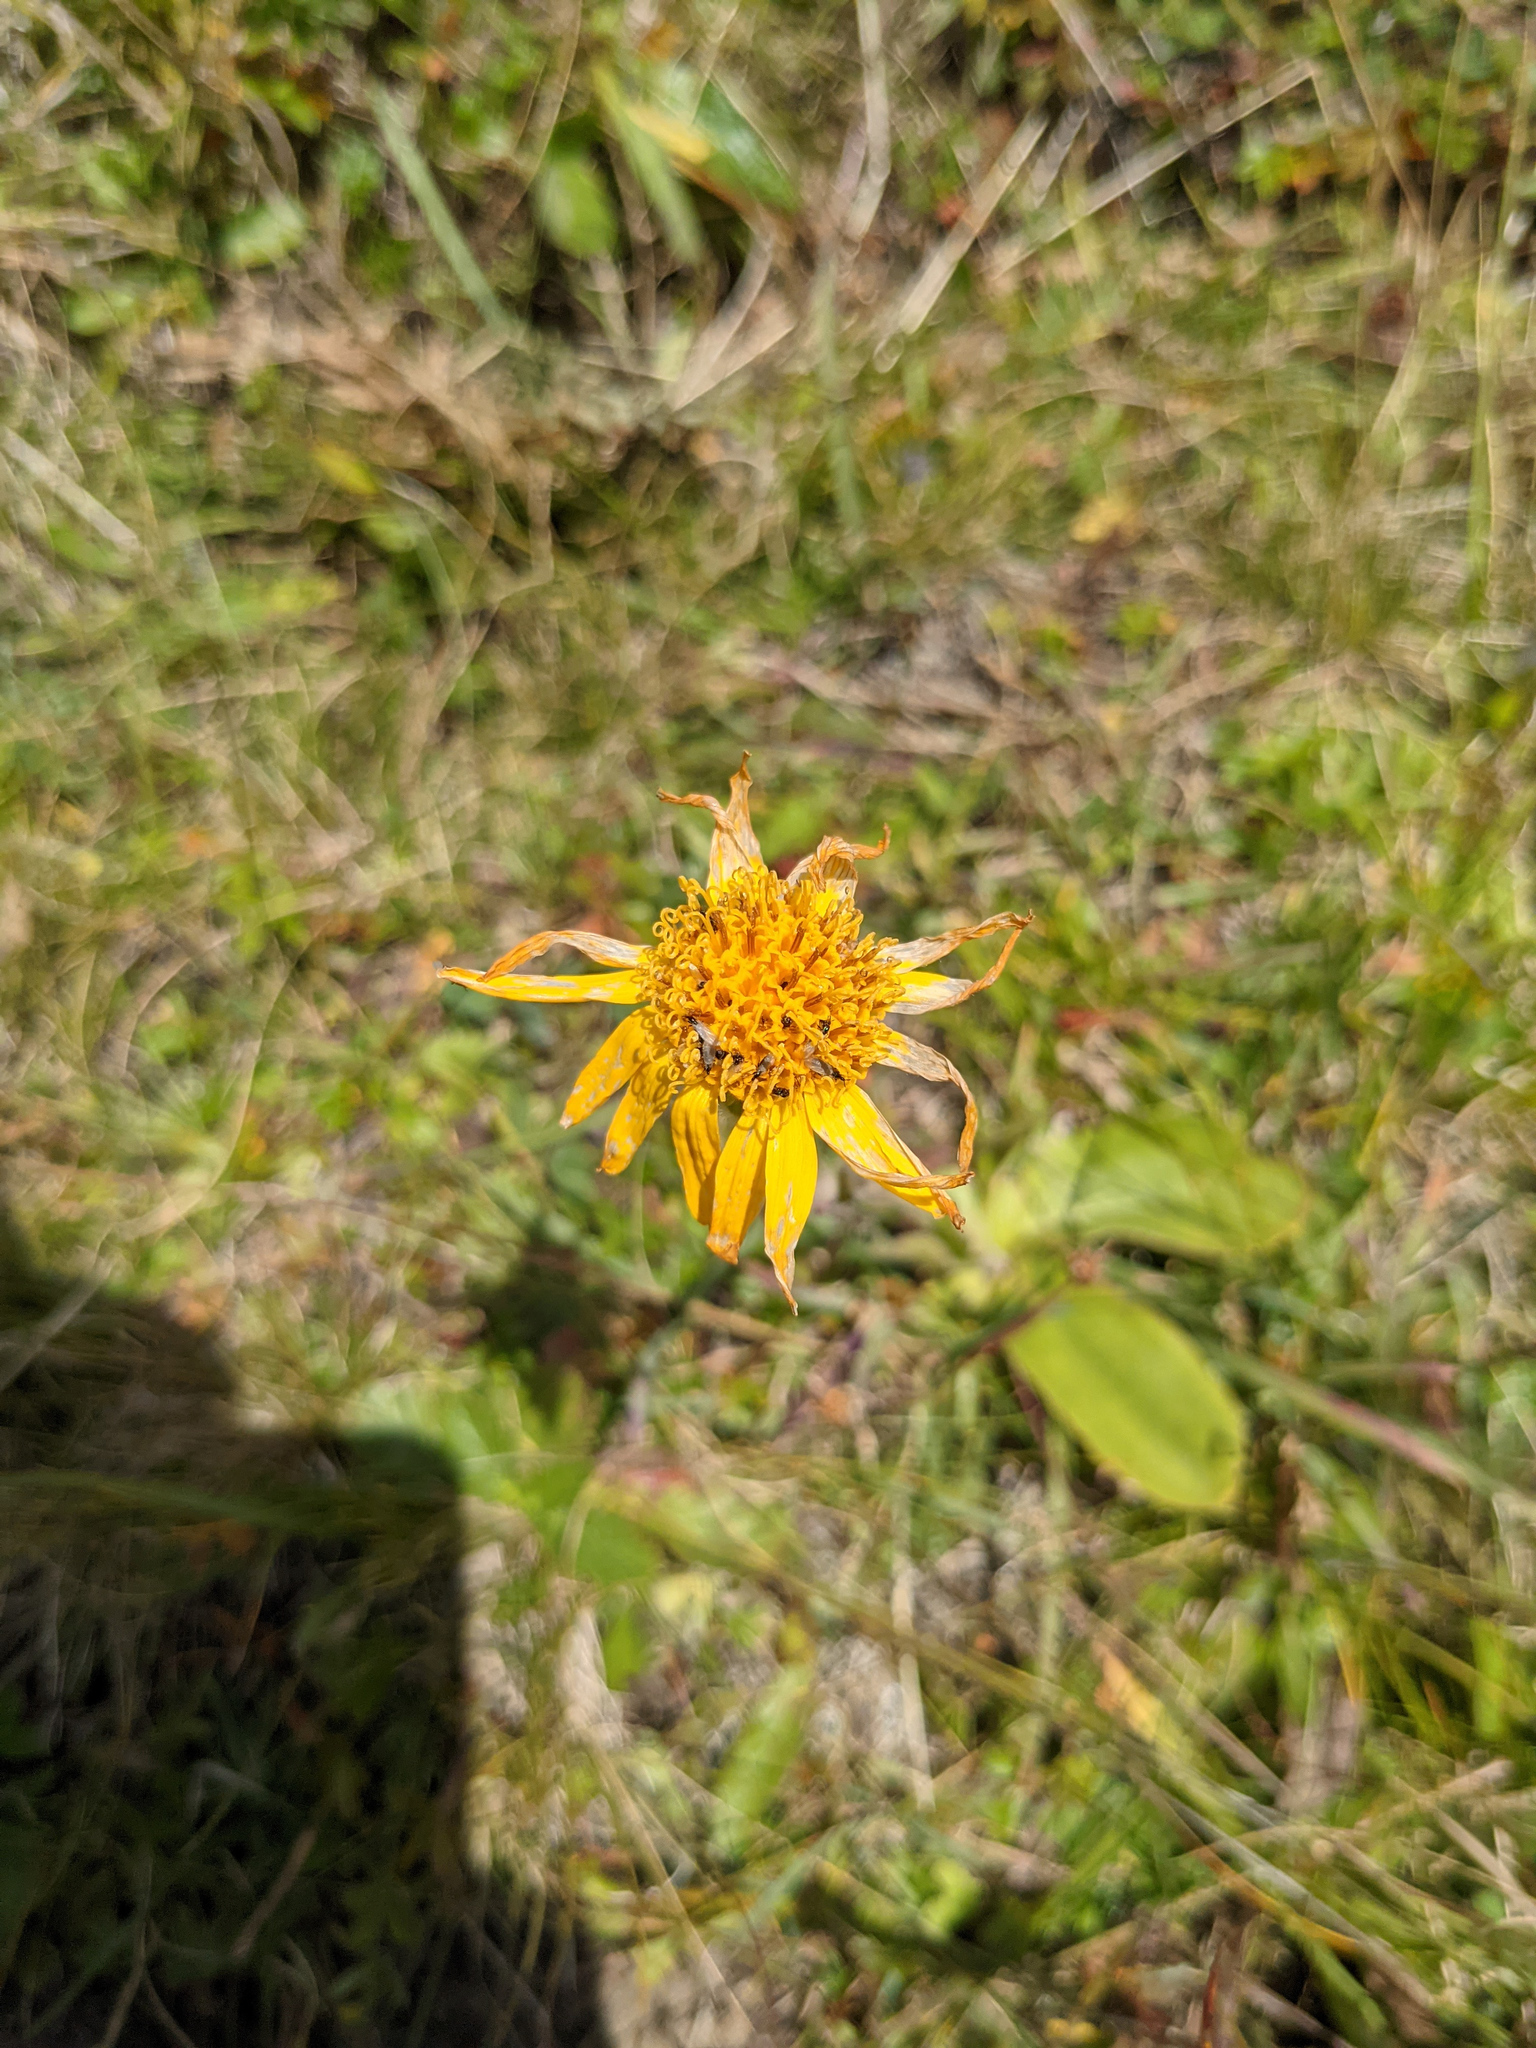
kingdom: Plantae
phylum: Tracheophyta
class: Magnoliopsida
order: Asterales
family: Asteraceae
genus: Arnica
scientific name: Arnica montana
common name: Leopard's bane
